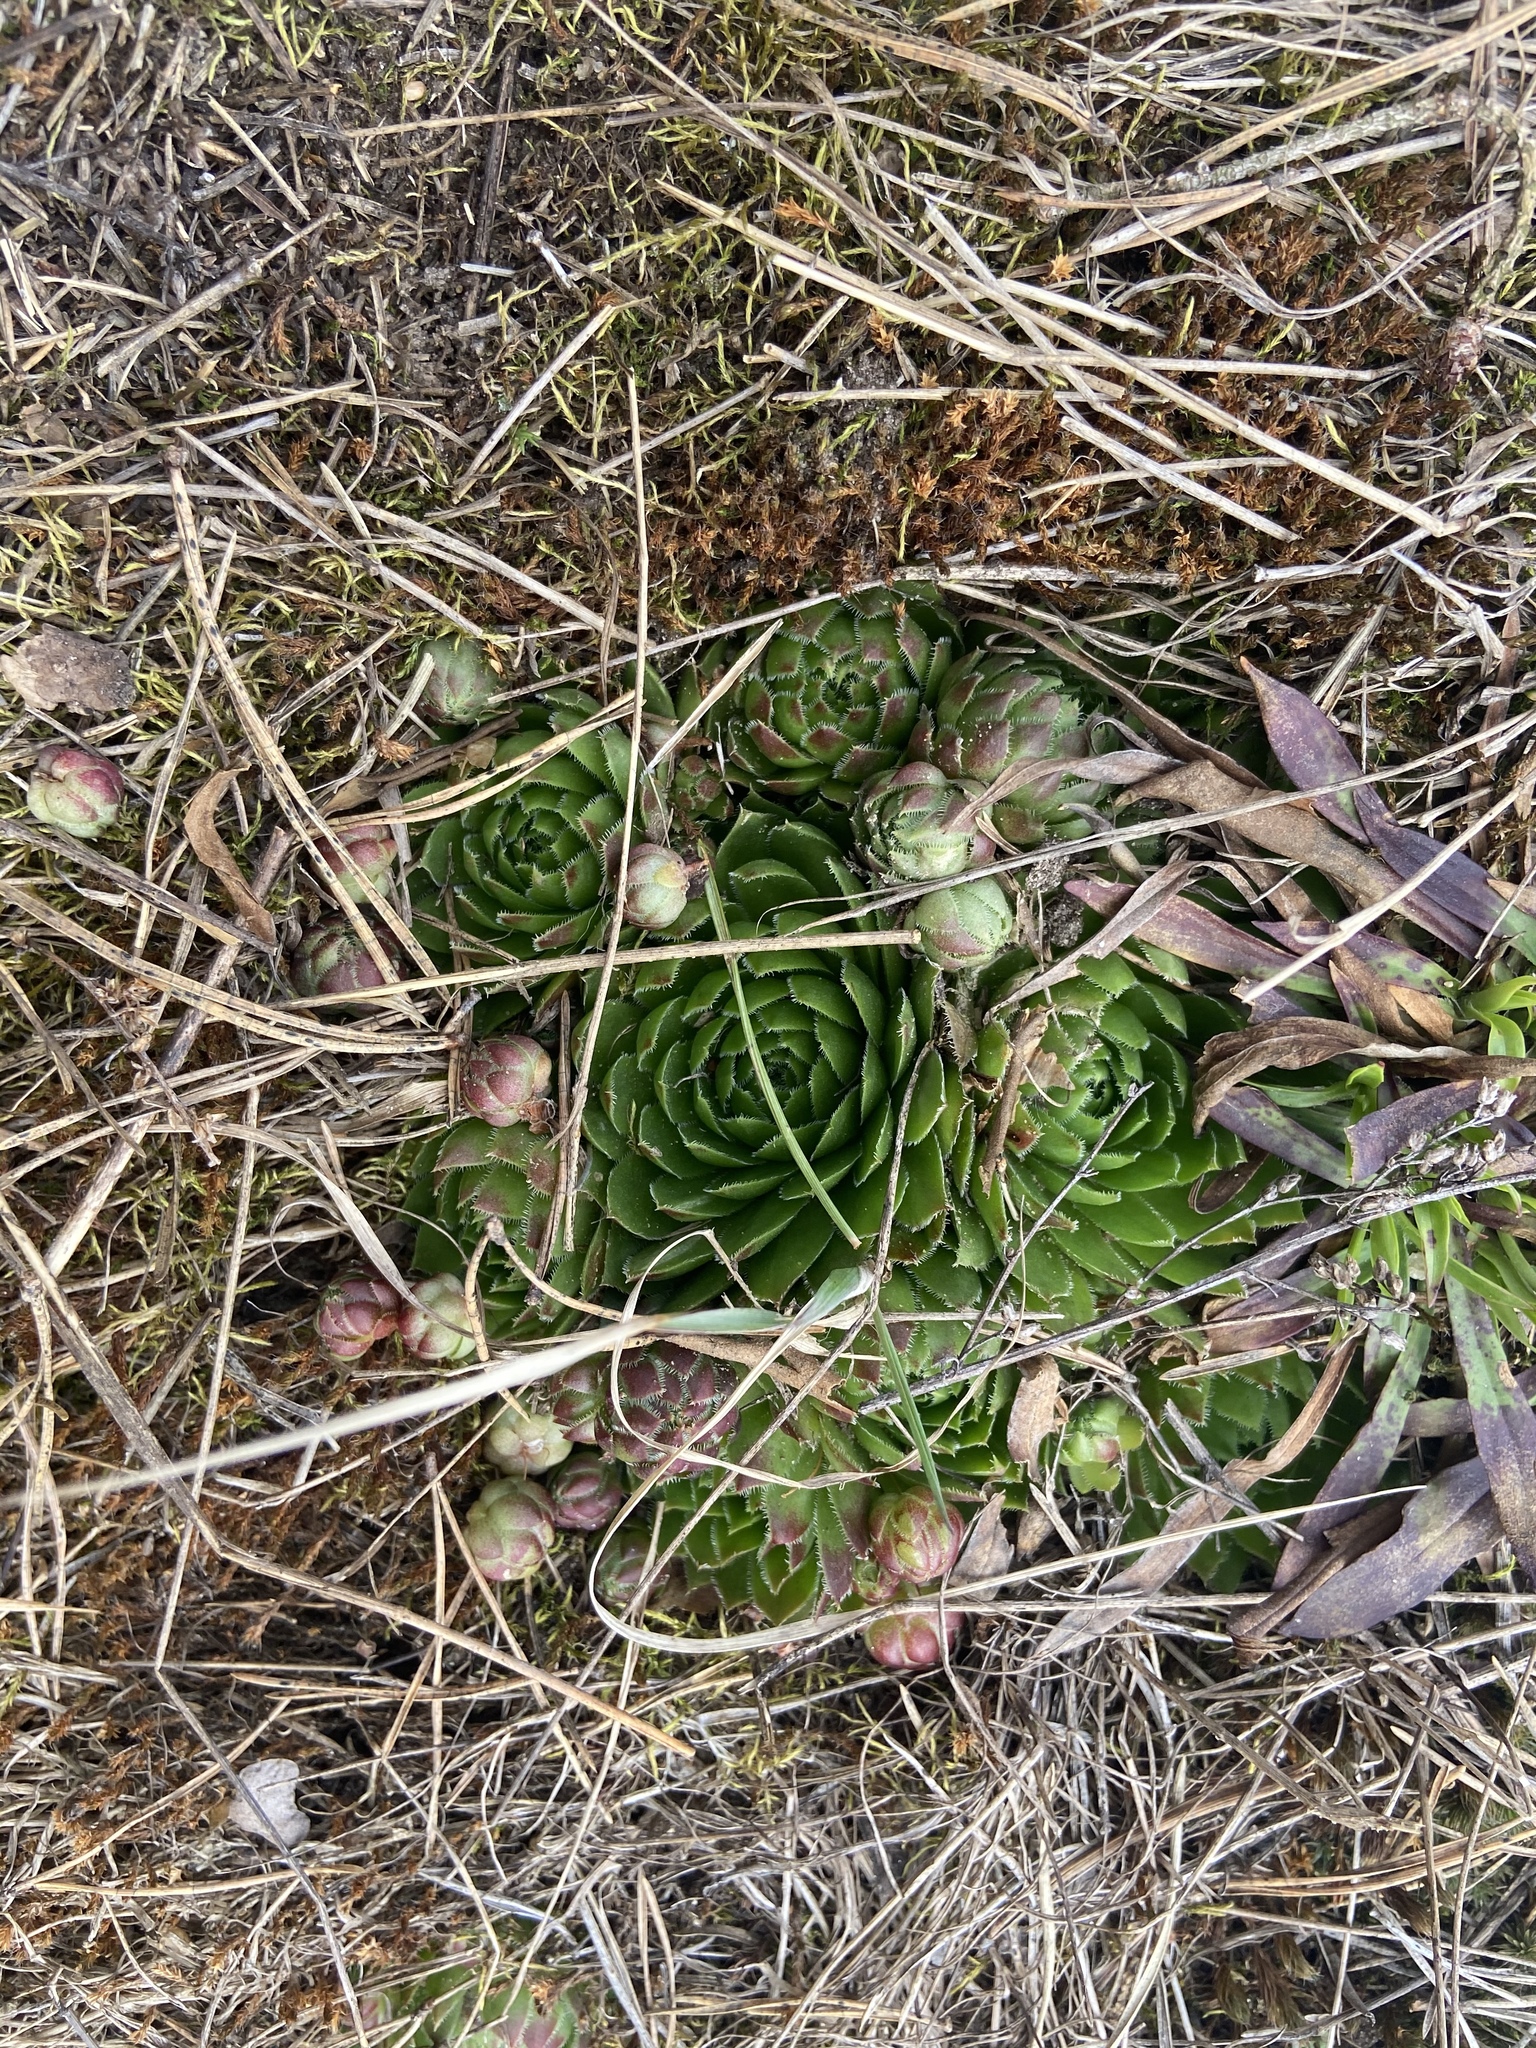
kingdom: Plantae
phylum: Tracheophyta
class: Magnoliopsida
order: Saxifragales
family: Crassulaceae
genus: Sempervivum
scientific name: Sempervivum globiferum
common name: Rolling hen-and-chicks
